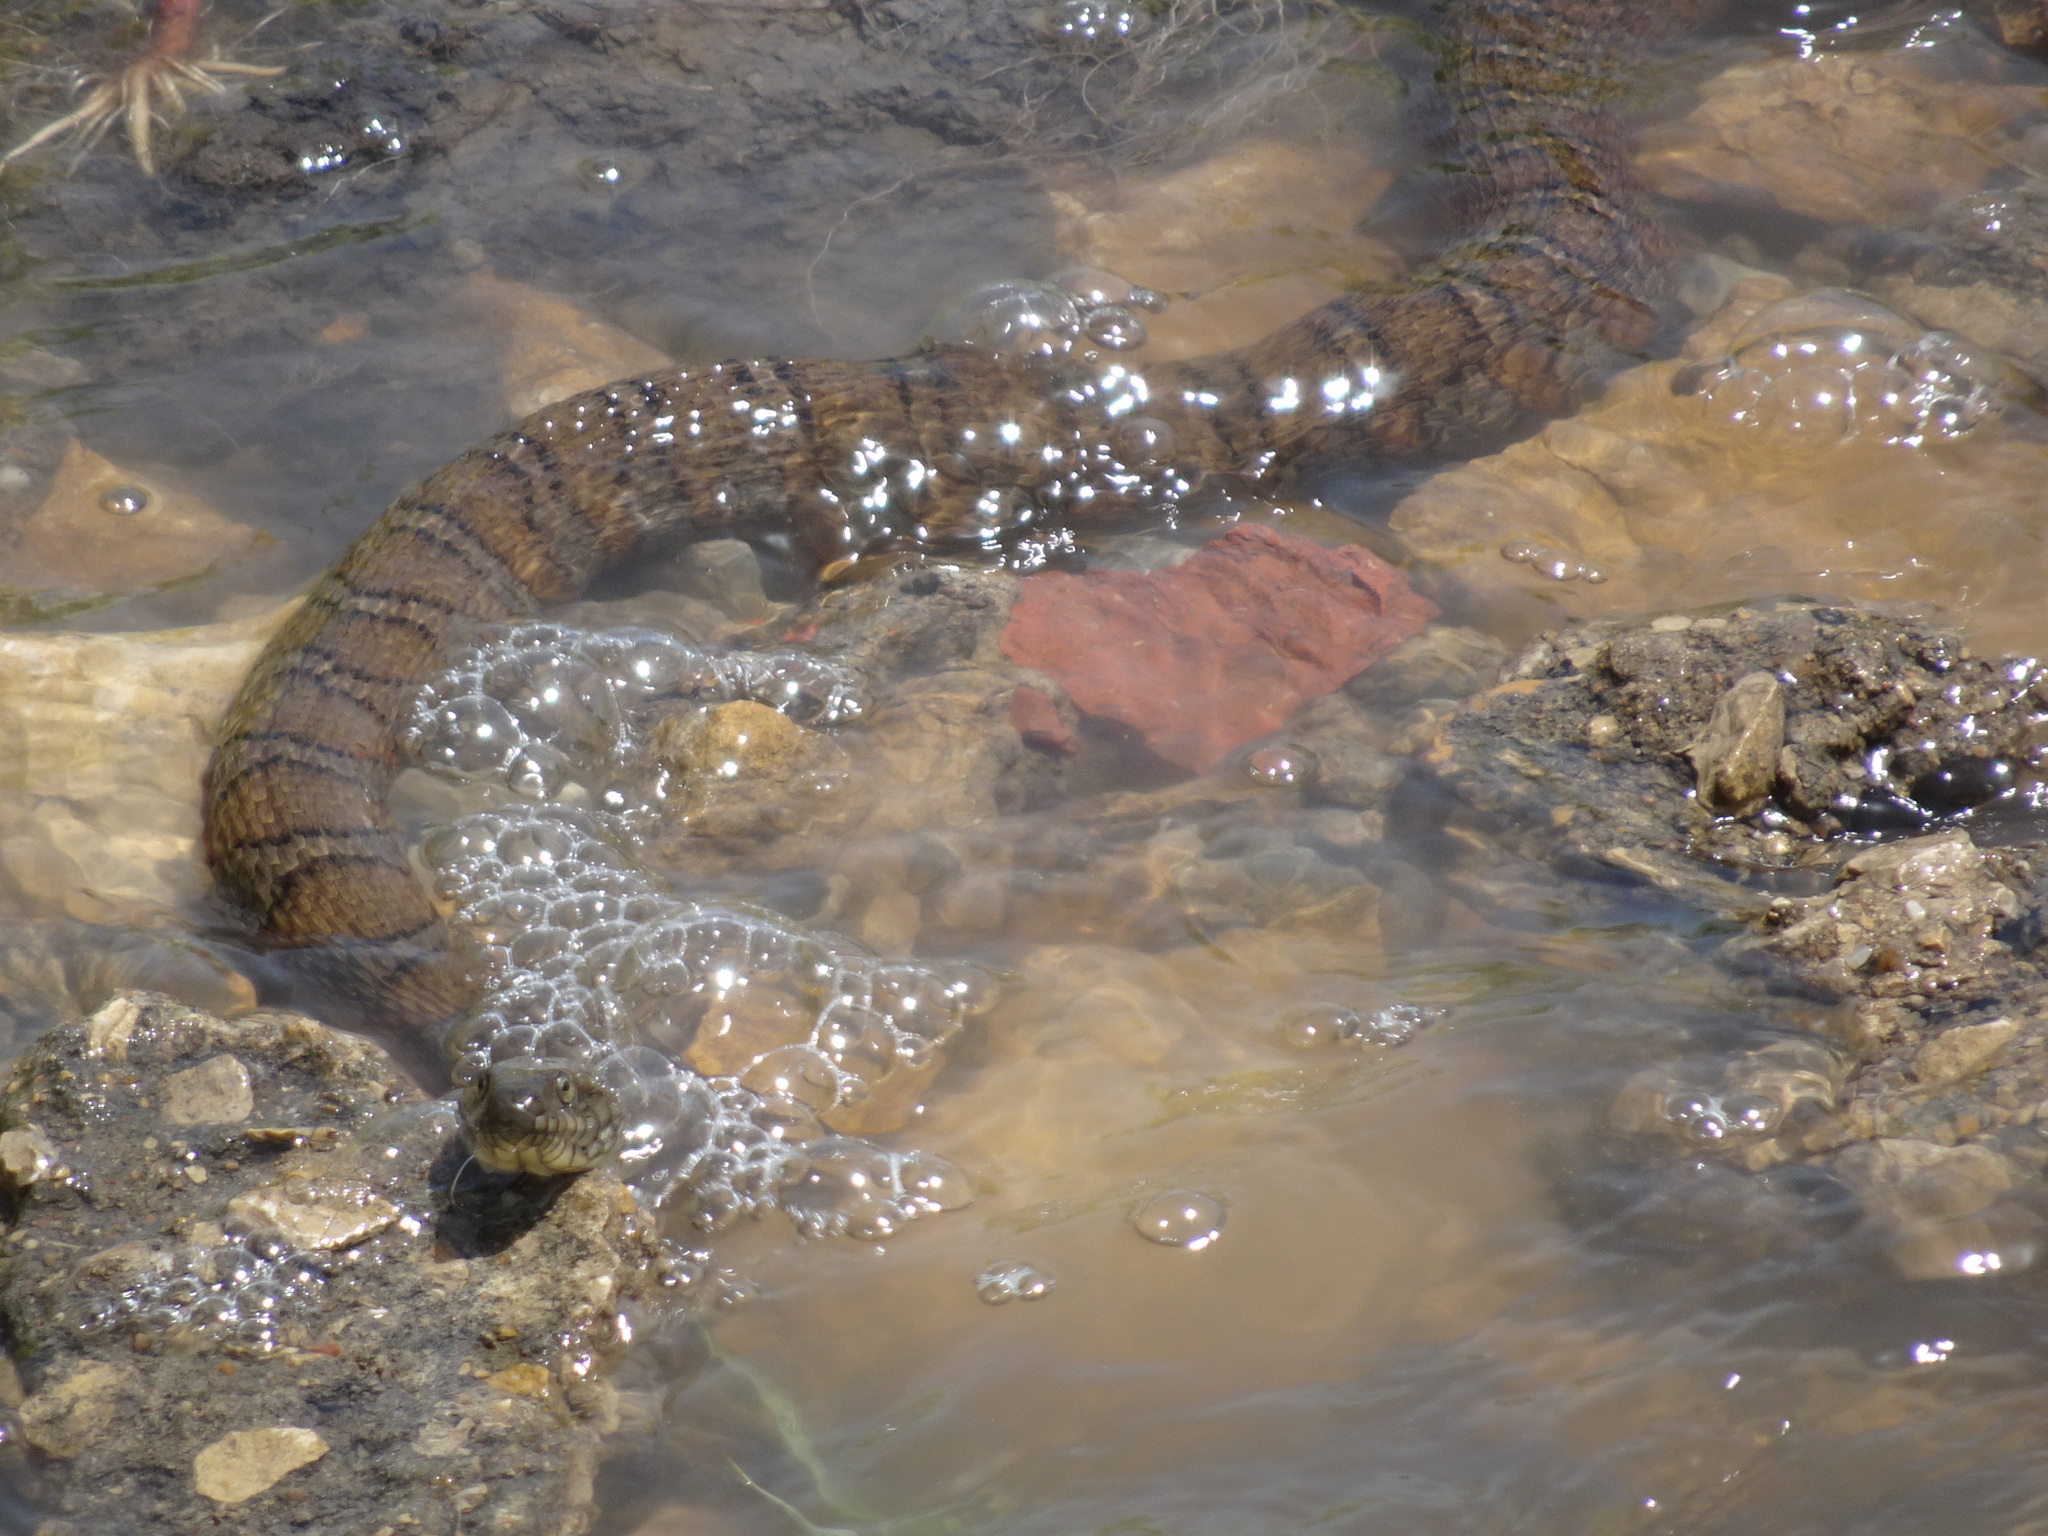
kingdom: Animalia
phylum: Chordata
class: Squamata
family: Colubridae
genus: Nerodia
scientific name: Nerodia sipedon
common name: Northern water snake
